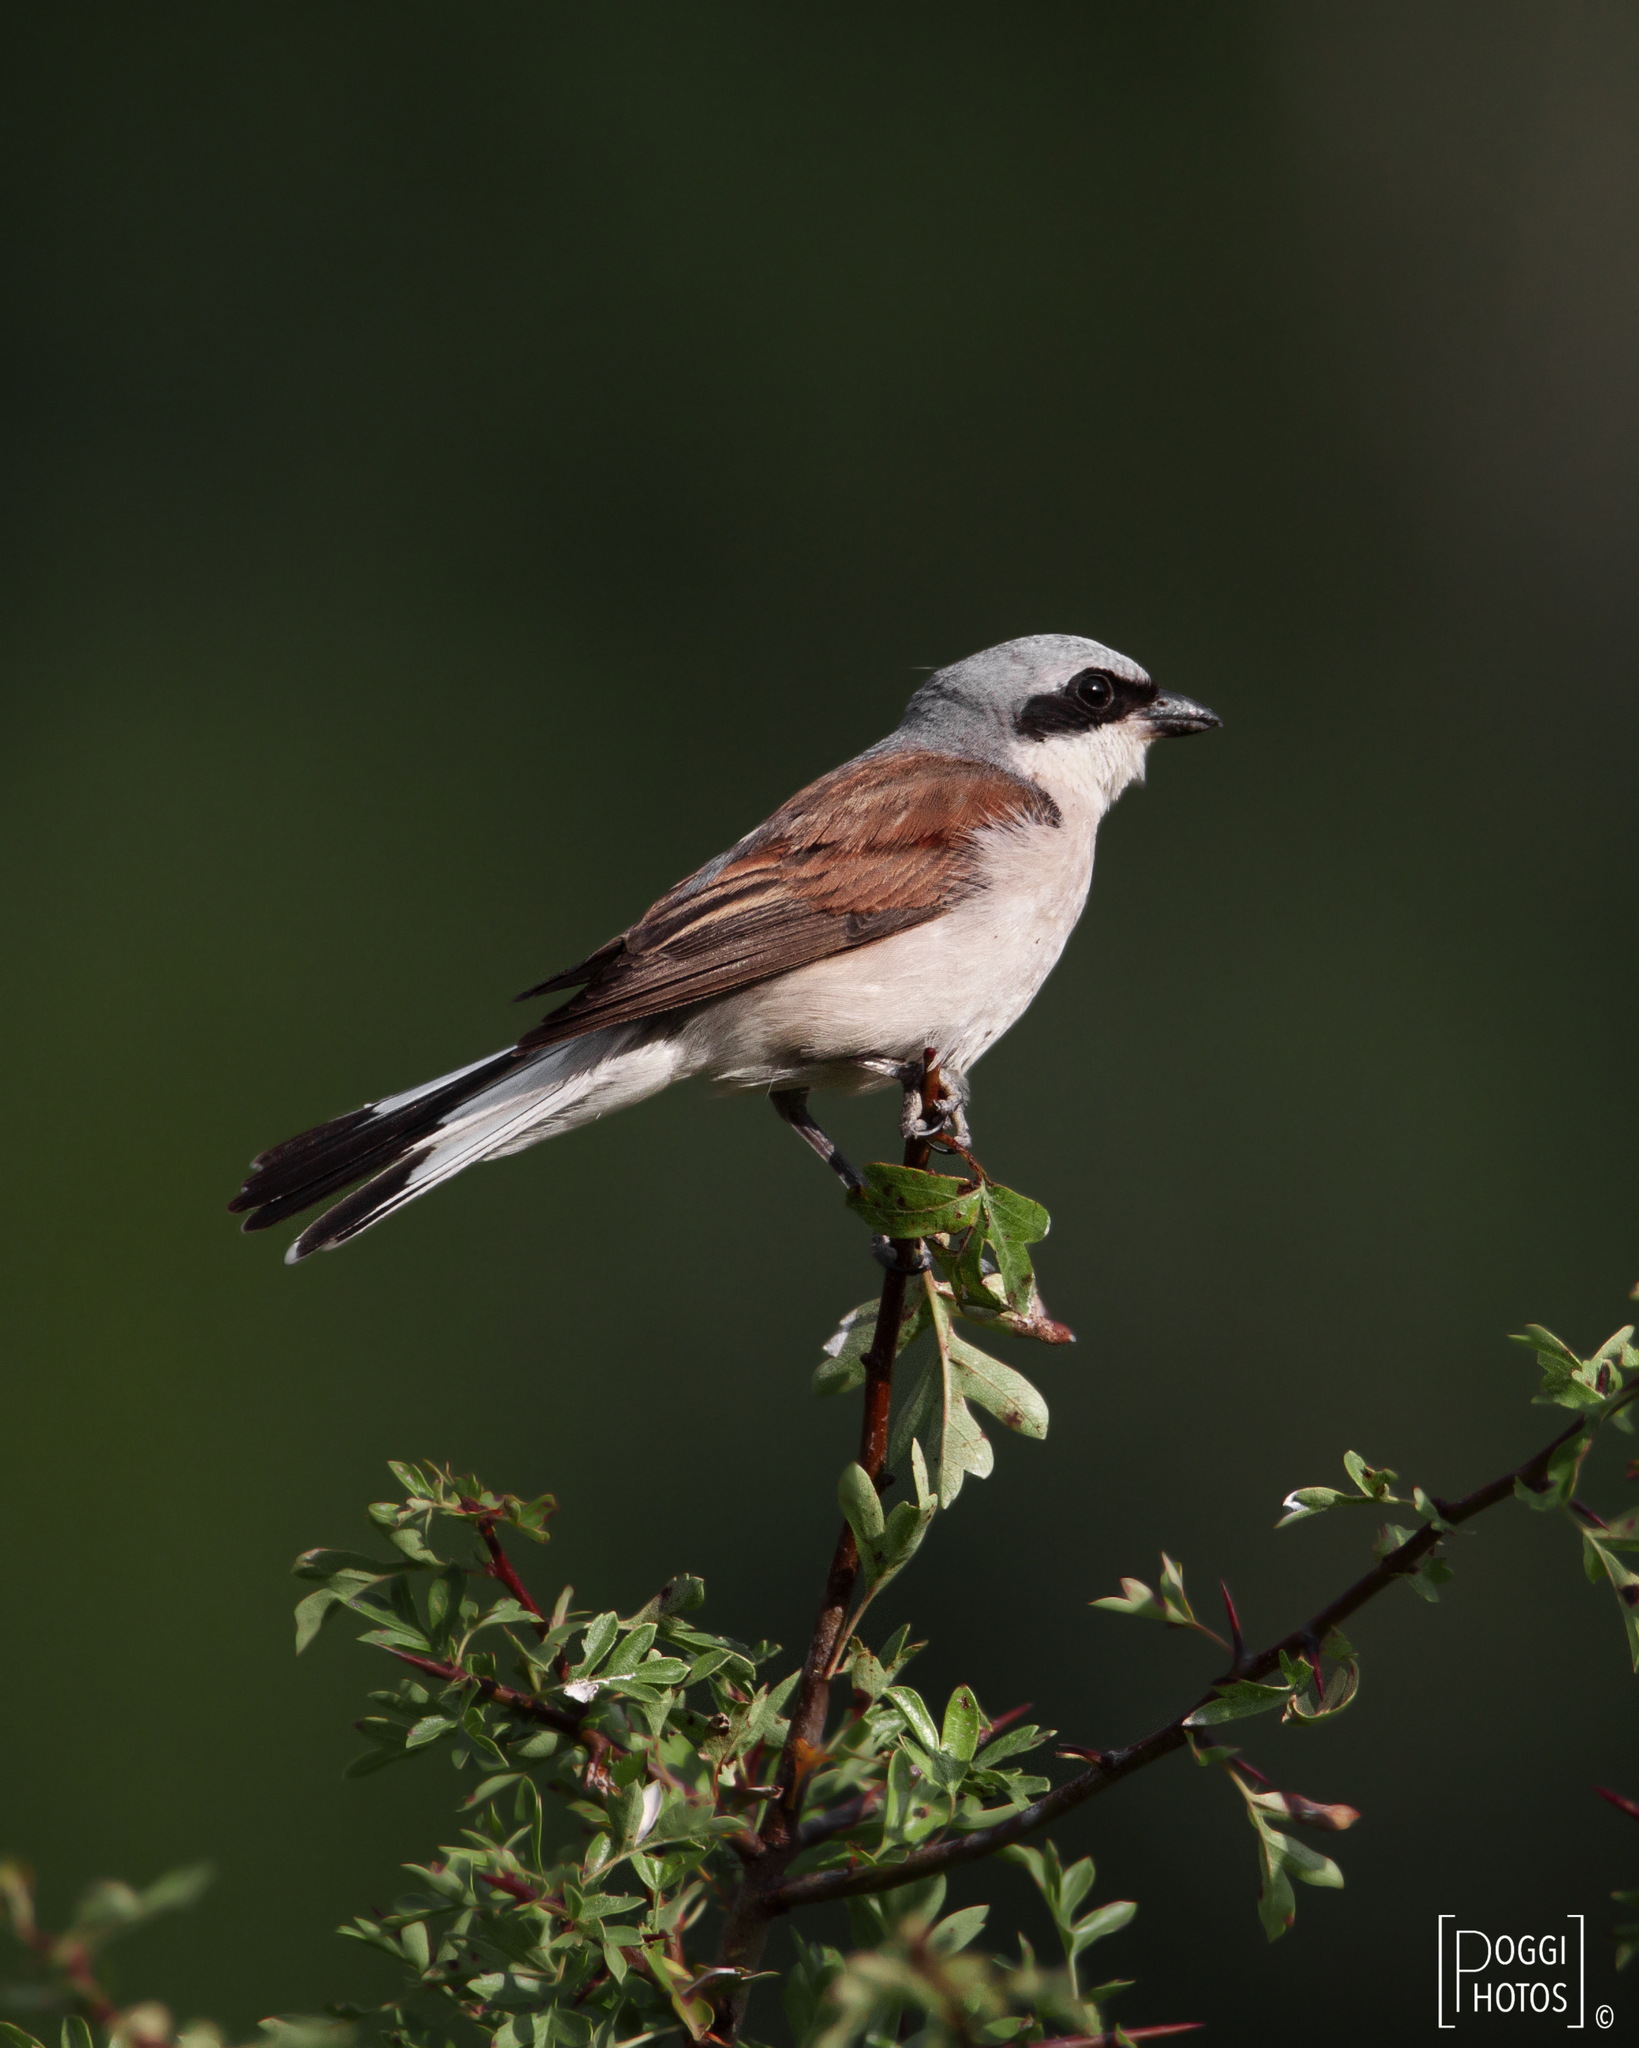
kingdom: Animalia
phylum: Chordata
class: Aves
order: Passeriformes
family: Laniidae
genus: Lanius
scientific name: Lanius collurio
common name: Red-backed shrike
